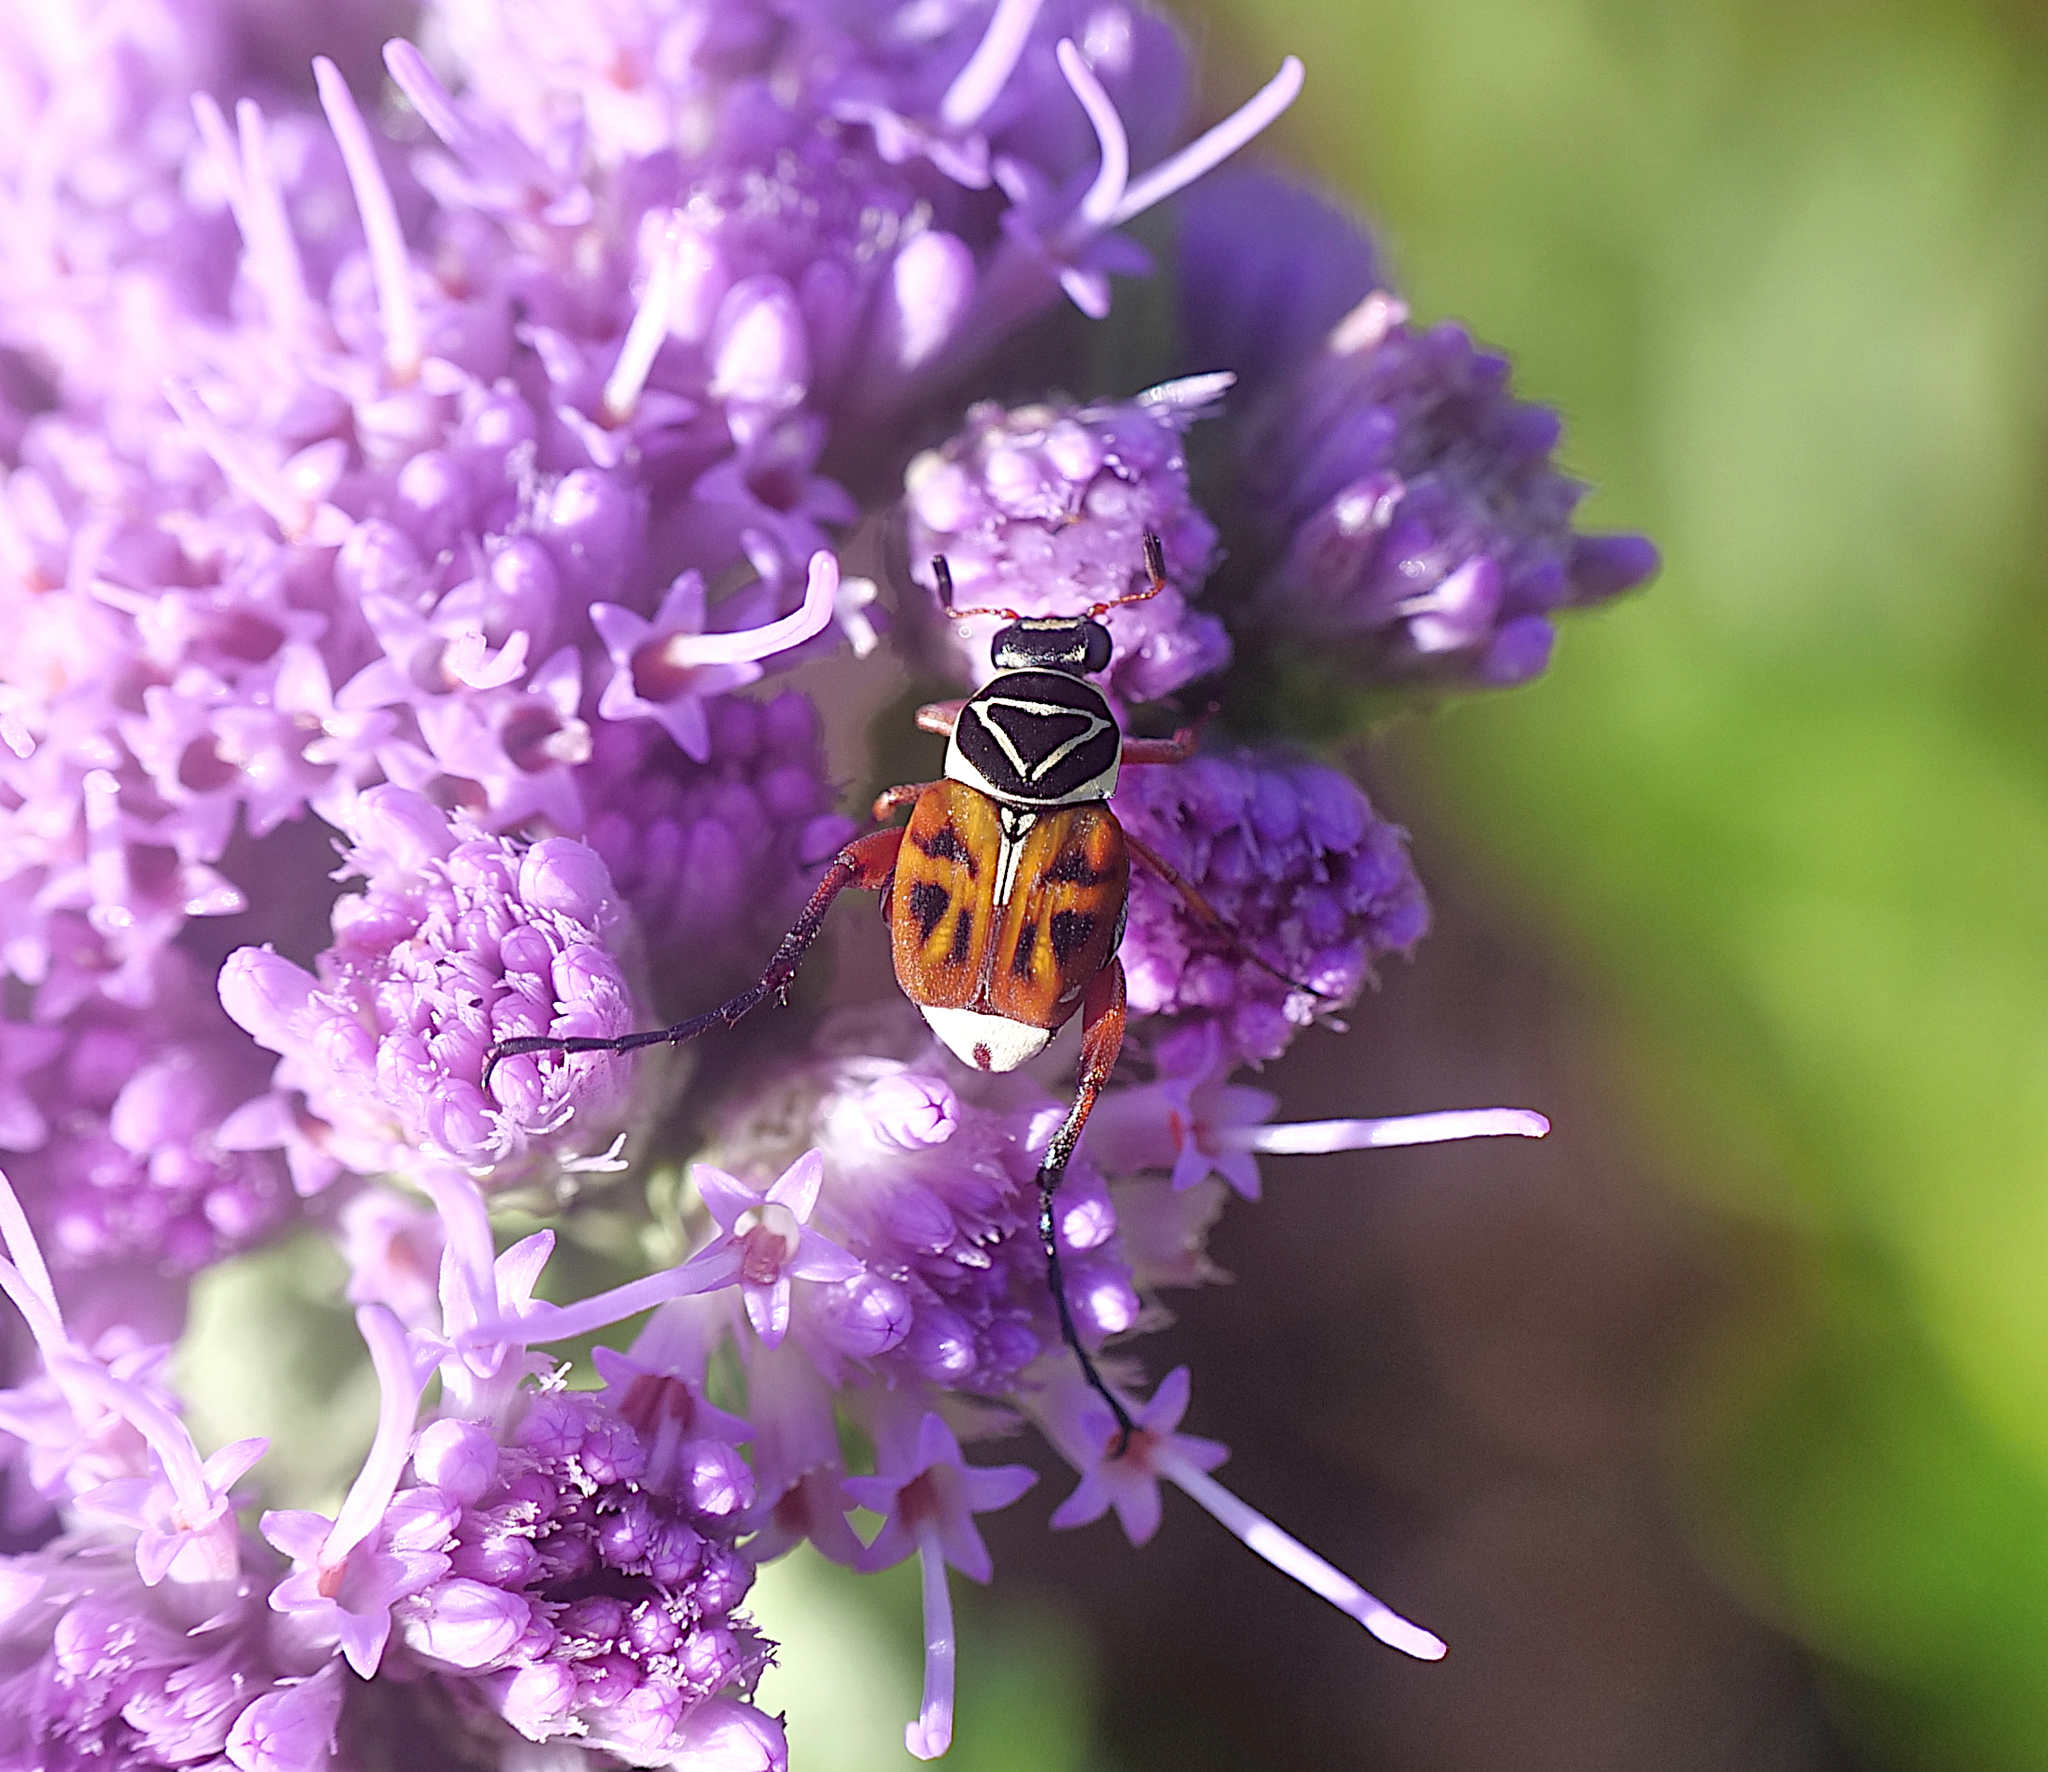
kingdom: Animalia
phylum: Arthropoda
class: Insecta
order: Coleoptera
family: Scarabaeidae
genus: Trigonopeltastes
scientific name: Trigonopeltastes delta
